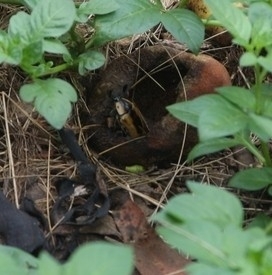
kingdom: Animalia
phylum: Arthropoda
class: Insecta
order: Coleoptera
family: Scarabaeidae
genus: Chondropyga
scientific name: Chondropyga dorsalis
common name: Cowboy beetle
